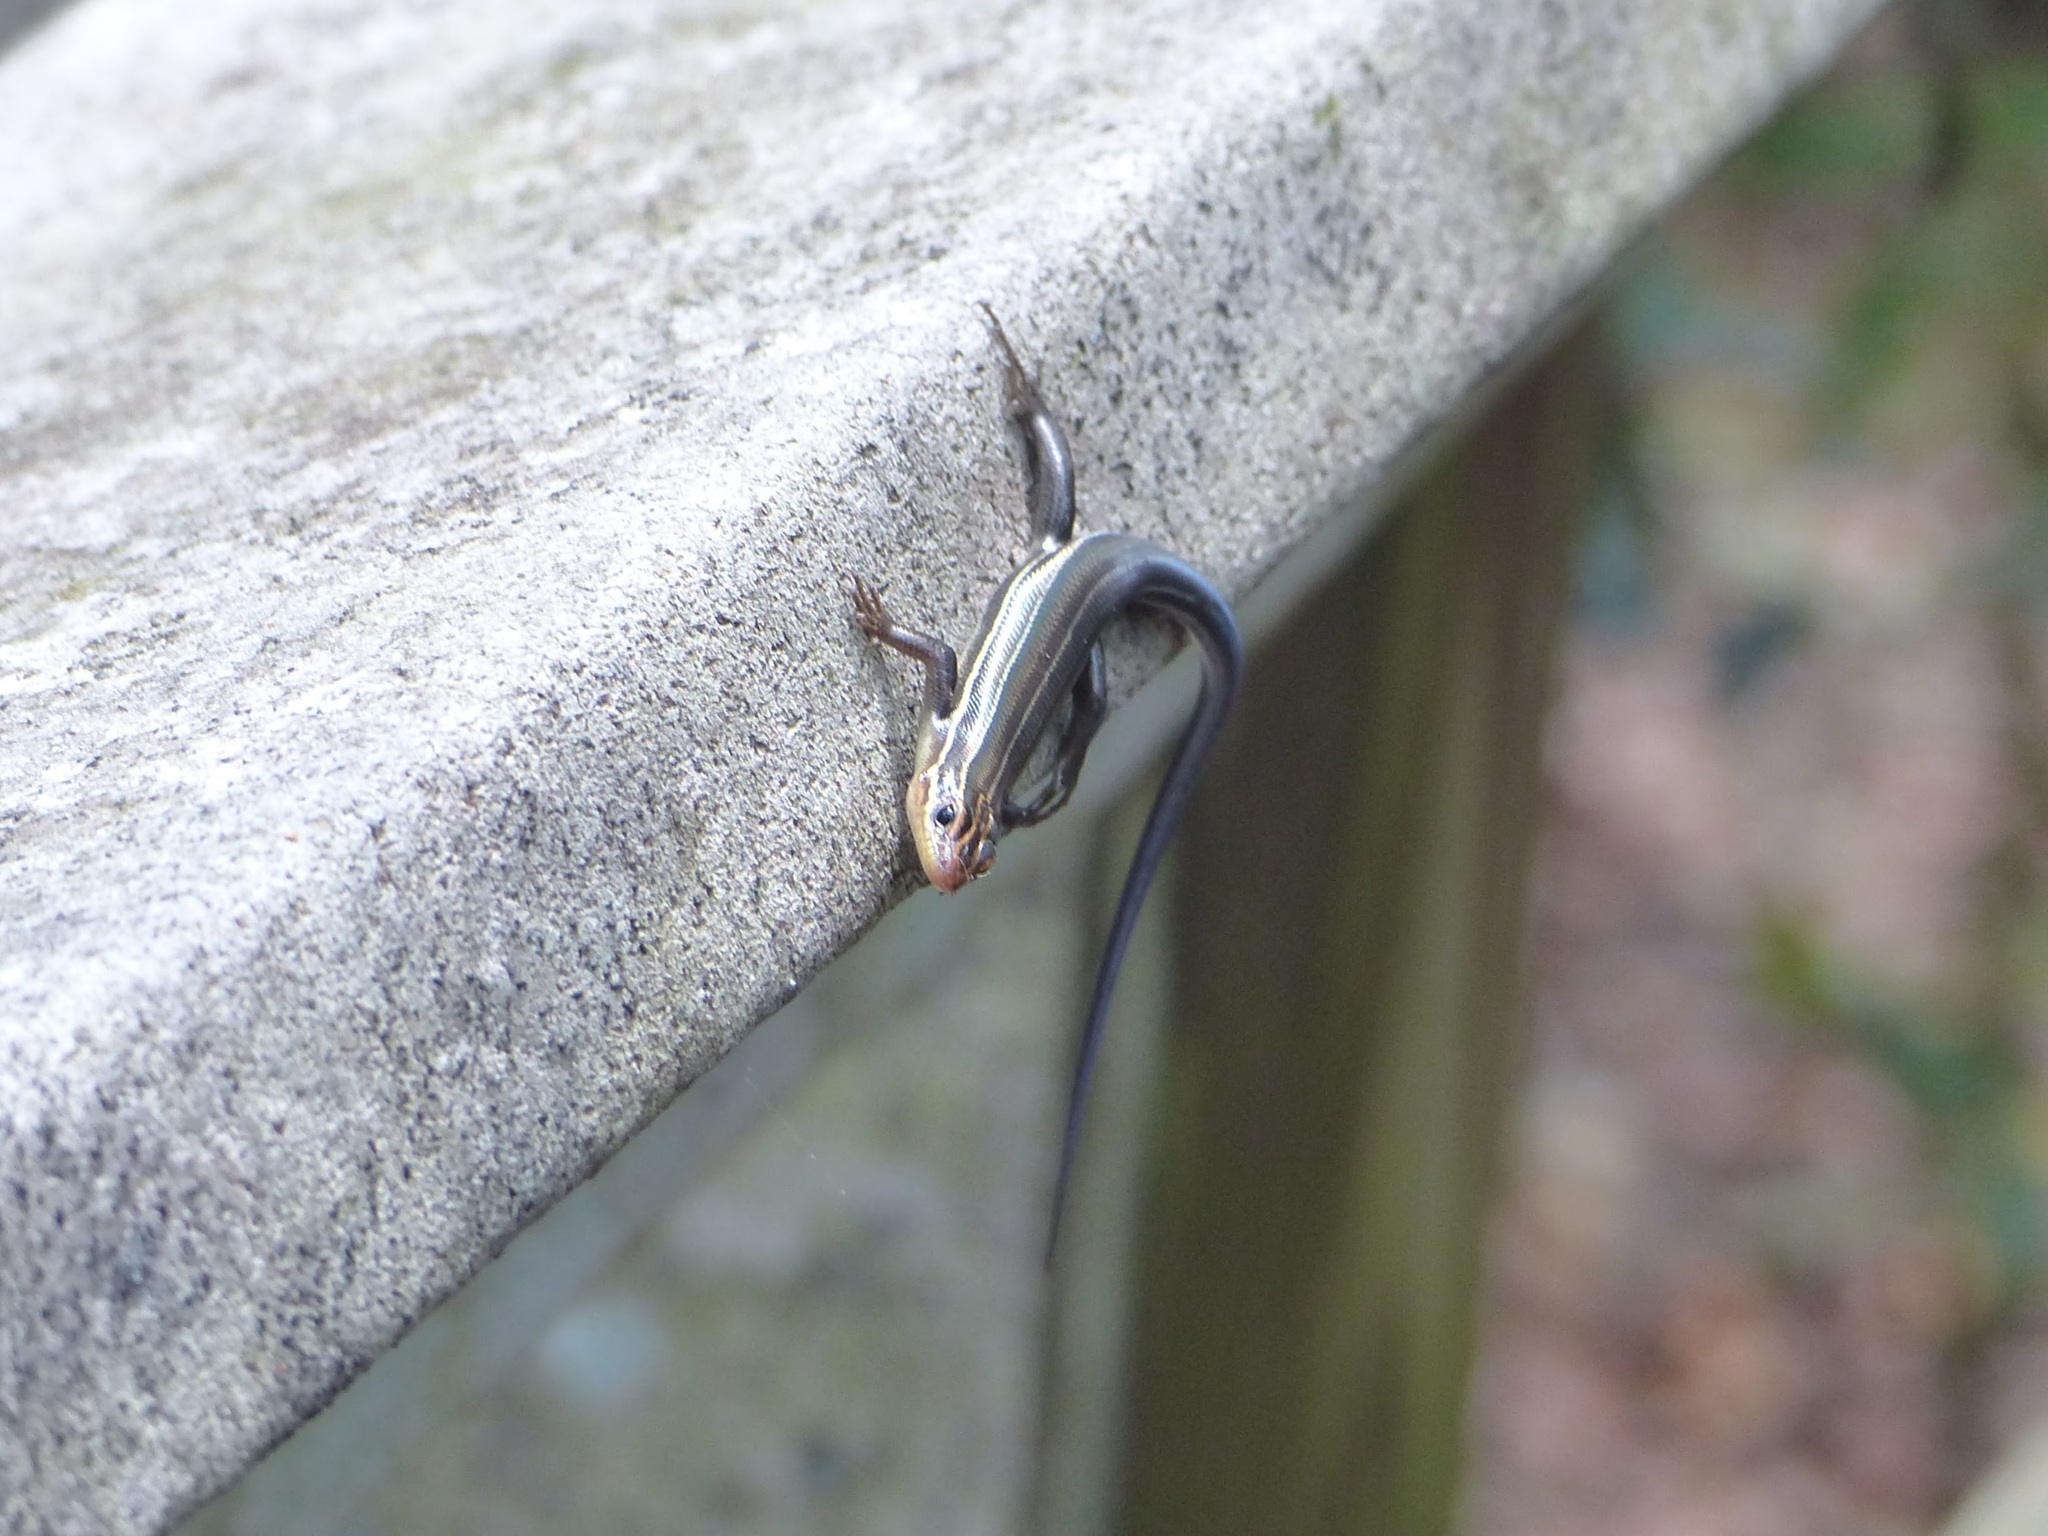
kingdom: Animalia
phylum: Chordata
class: Squamata
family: Scincidae
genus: Plestiodon
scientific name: Plestiodon inexpectatus
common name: Southeastern five-lined skink
